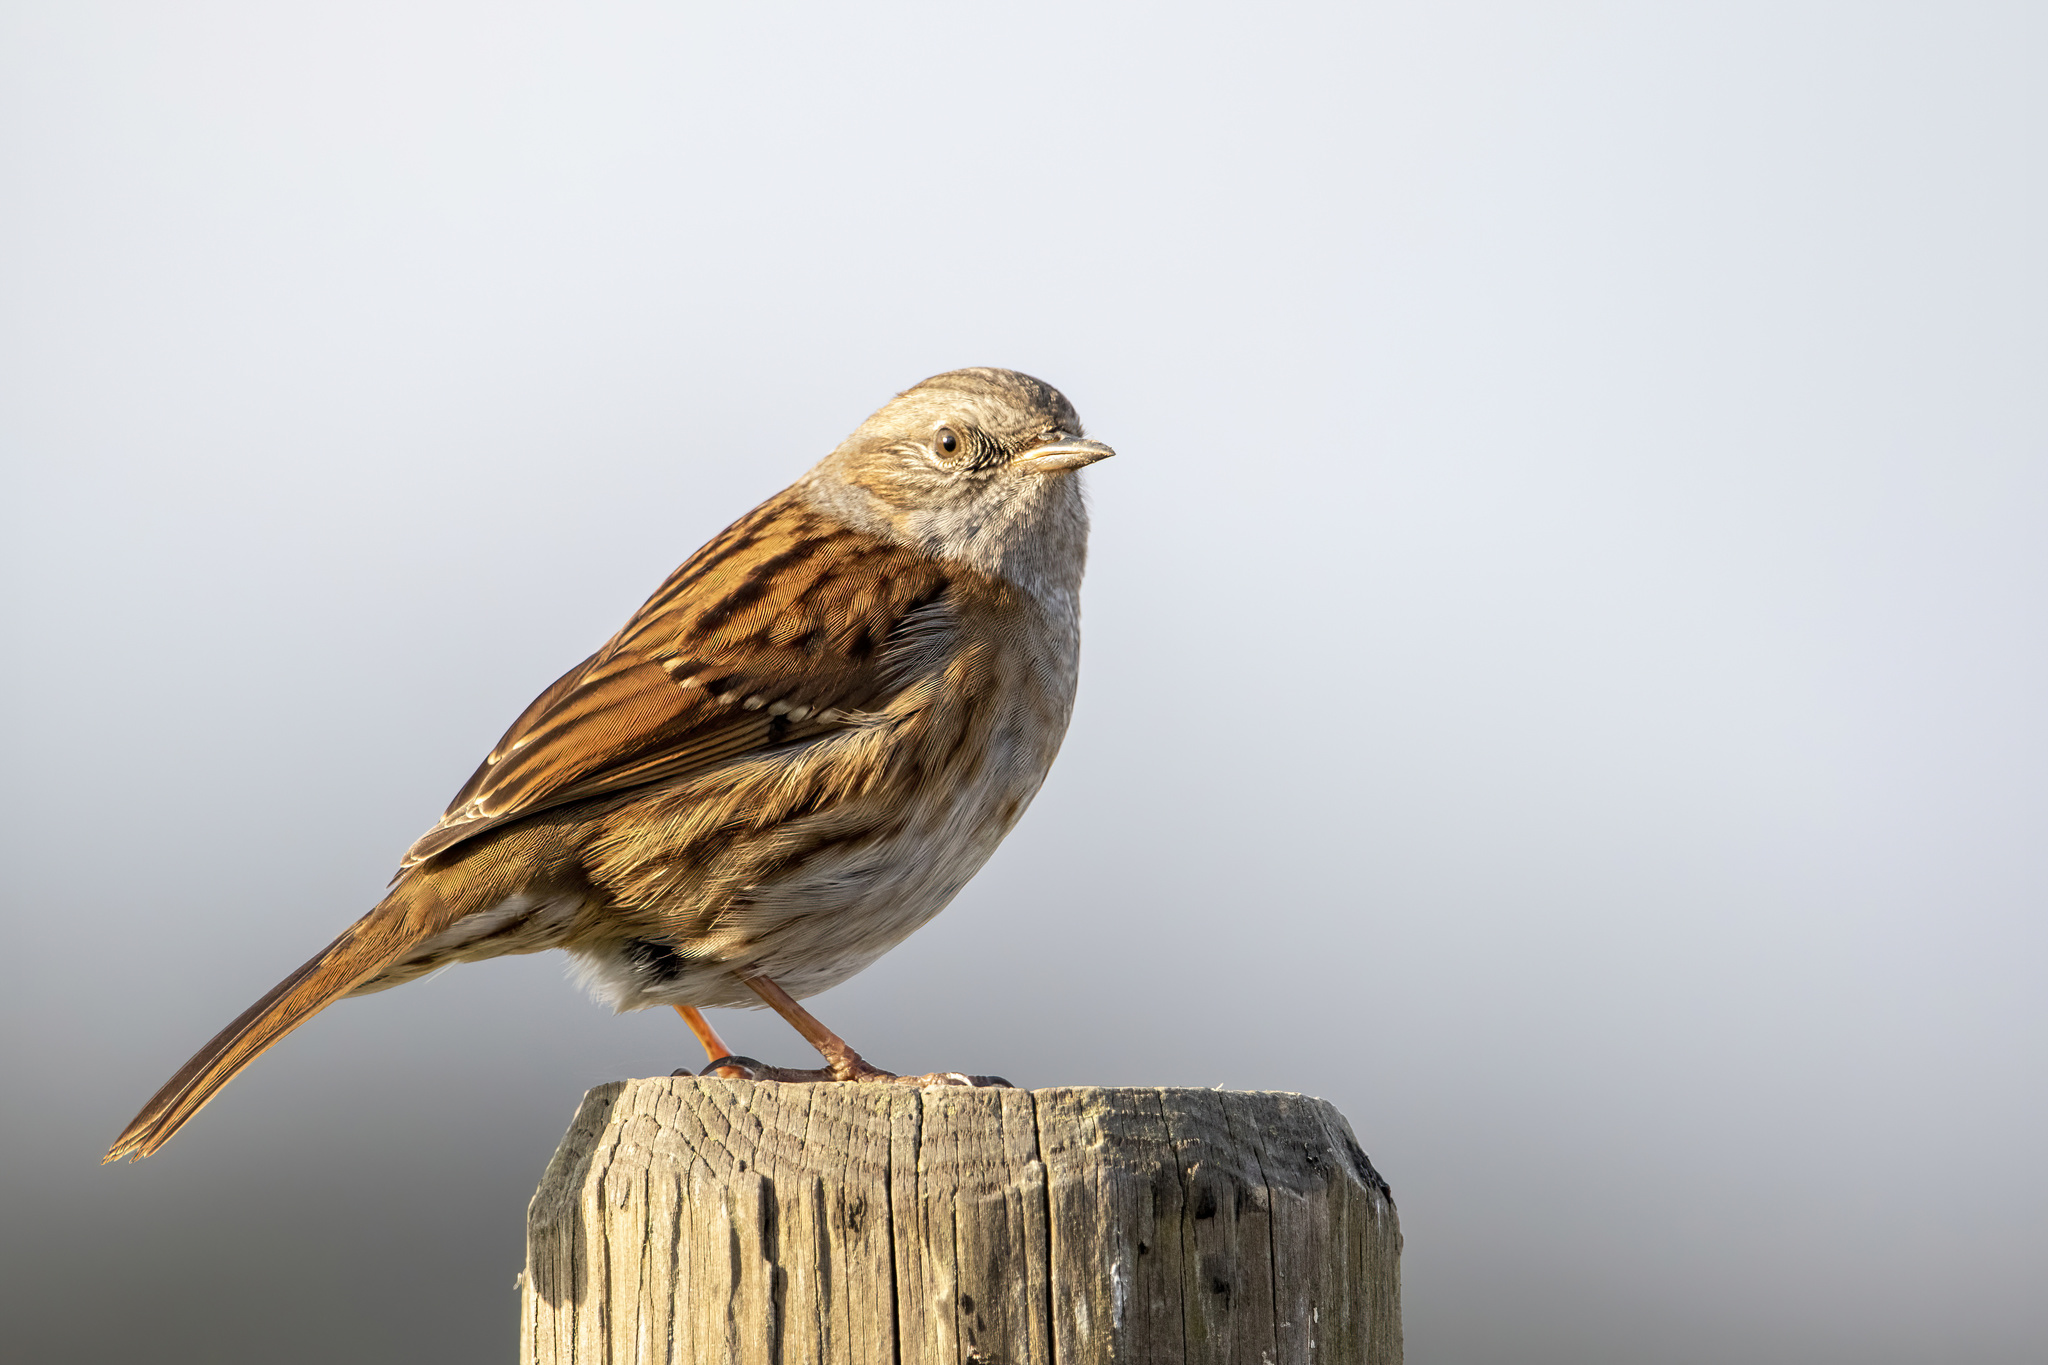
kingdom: Animalia
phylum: Chordata
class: Aves
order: Passeriformes
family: Prunellidae
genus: Prunella
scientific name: Prunella modularis
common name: Dunnock
